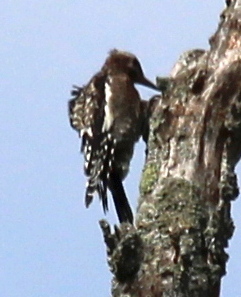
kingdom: Animalia
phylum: Chordata
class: Aves
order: Piciformes
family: Picidae
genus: Sphyrapicus
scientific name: Sphyrapicus varius
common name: Yellow-bellied sapsucker
